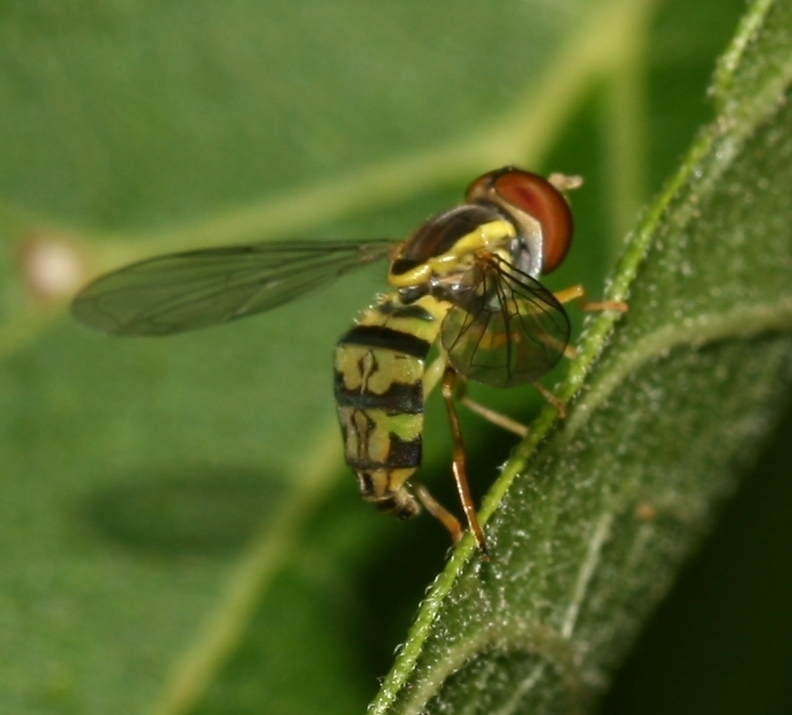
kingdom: Animalia
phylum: Arthropoda
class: Insecta
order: Diptera
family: Syrphidae
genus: Toxomerus
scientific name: Toxomerus geminatus
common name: Eastern calligrapher
